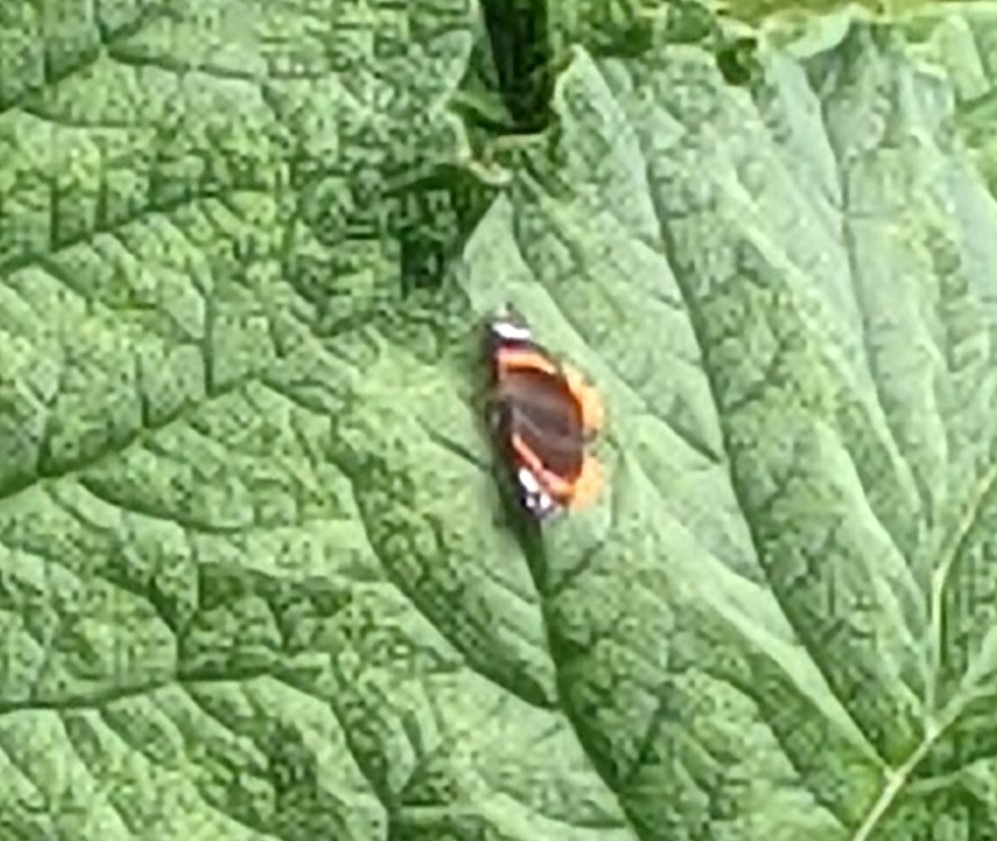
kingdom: Animalia
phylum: Arthropoda
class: Insecta
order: Lepidoptera
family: Nymphalidae
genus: Vanessa
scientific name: Vanessa atalanta
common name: Red admiral
